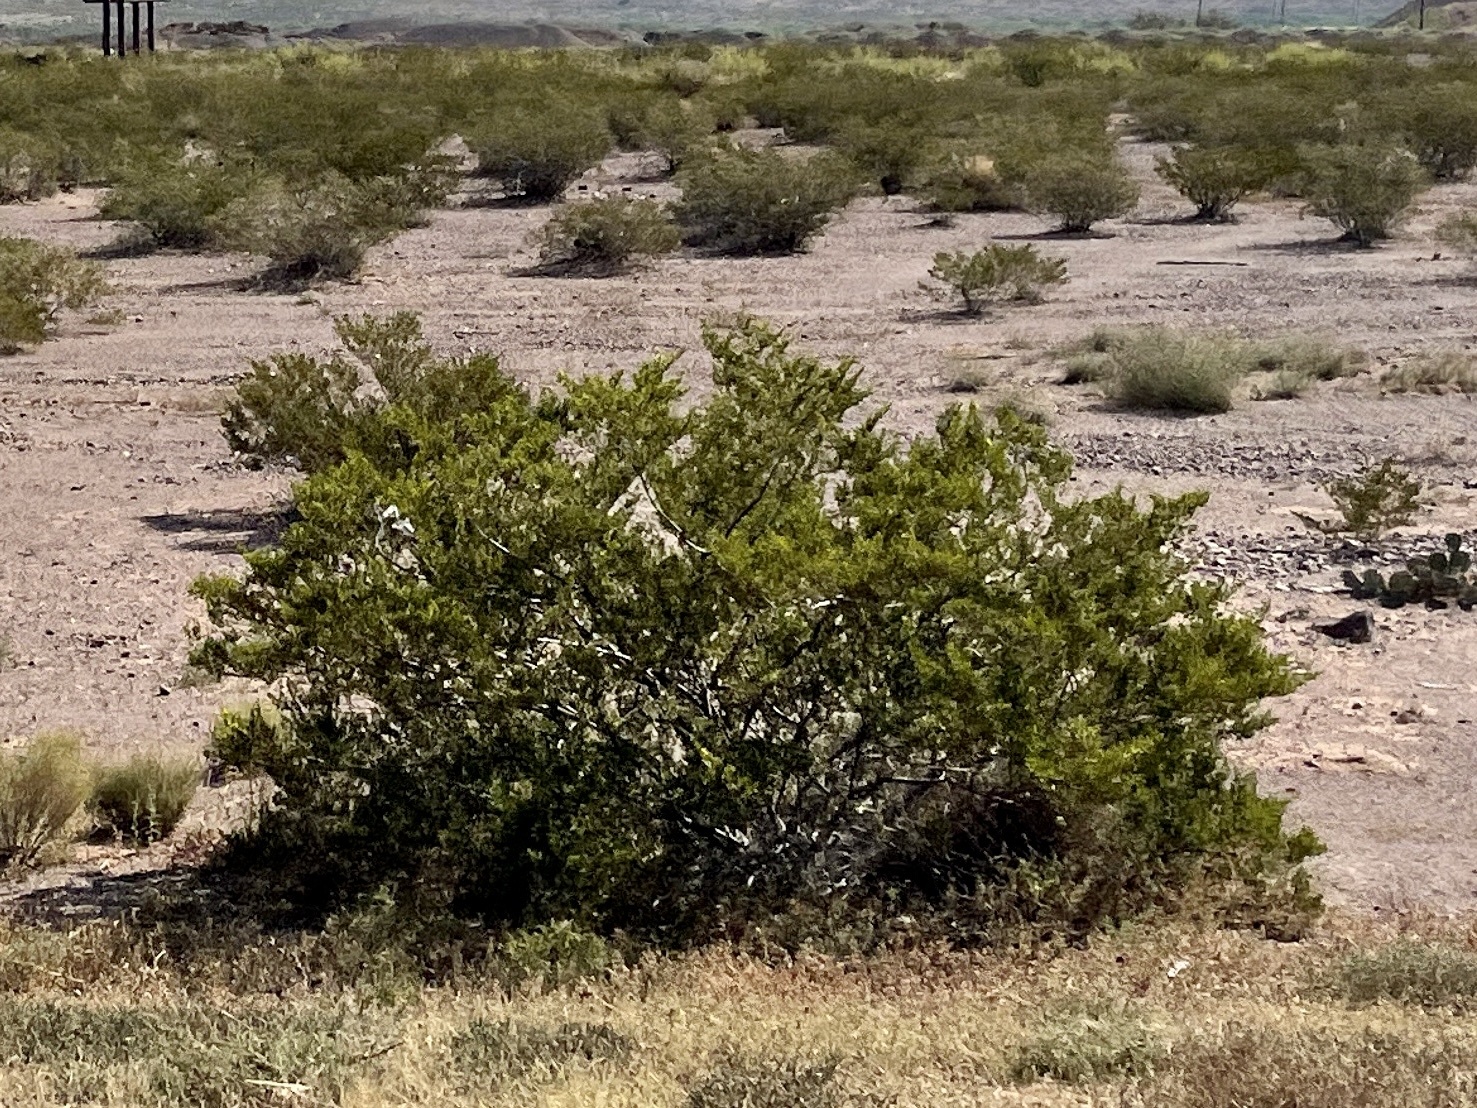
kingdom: Plantae
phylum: Tracheophyta
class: Magnoliopsida
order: Zygophyllales
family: Zygophyllaceae
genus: Larrea
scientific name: Larrea tridentata
